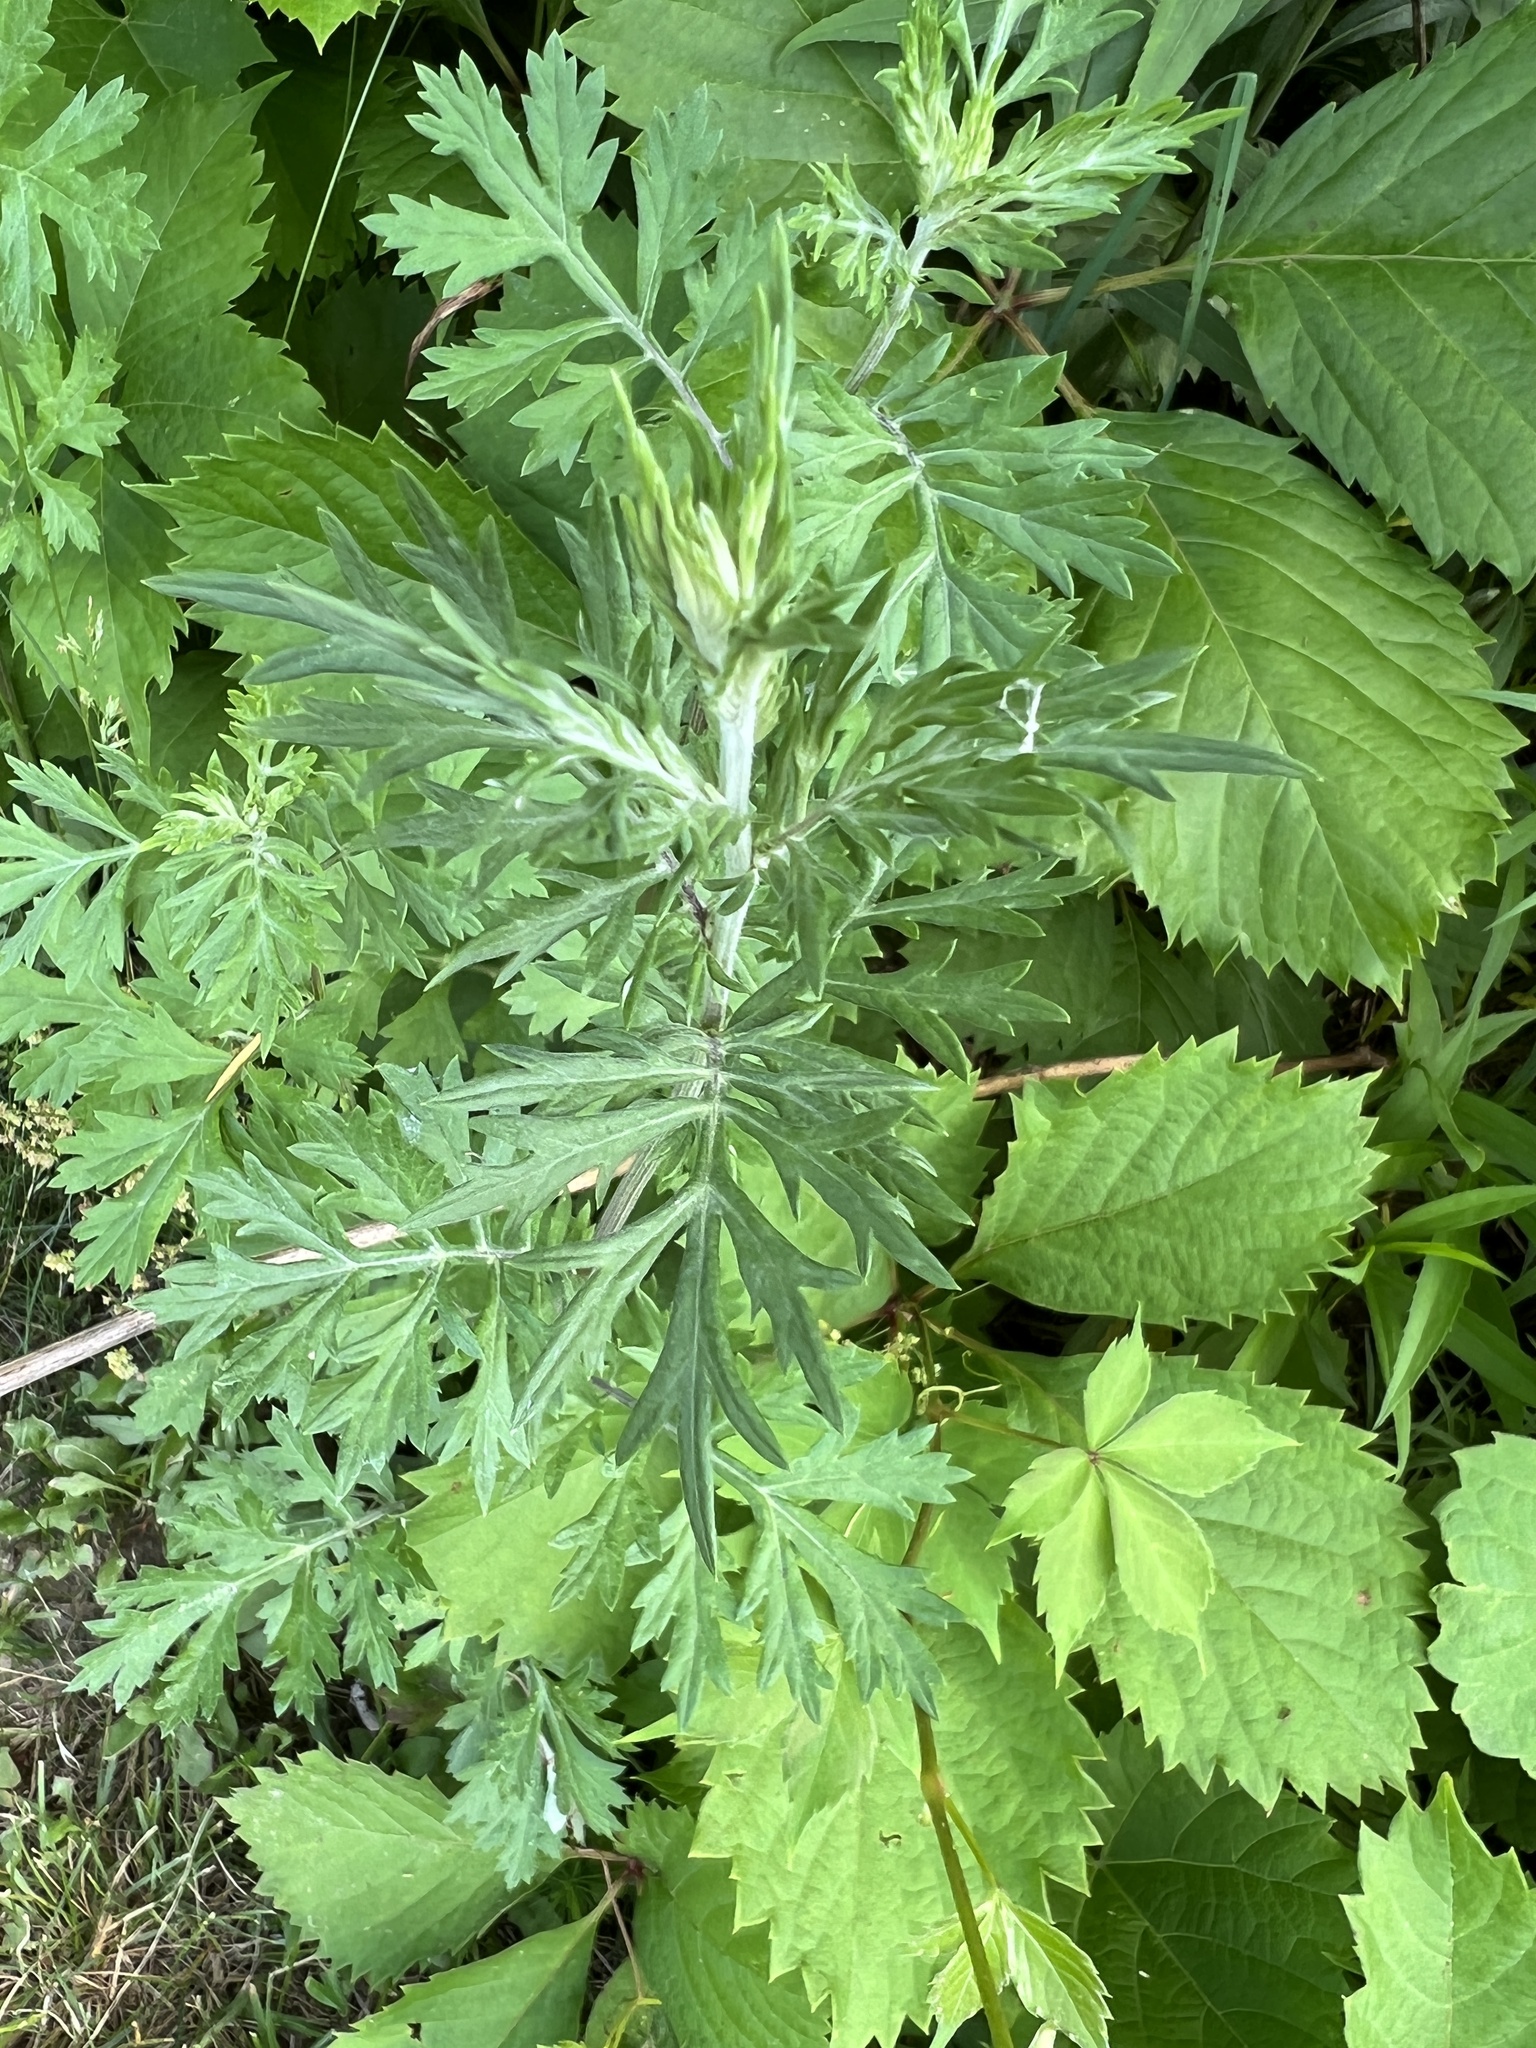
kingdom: Plantae
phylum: Tracheophyta
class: Magnoliopsida
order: Asterales
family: Asteraceae
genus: Artemisia
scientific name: Artemisia vulgaris
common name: Mugwort
